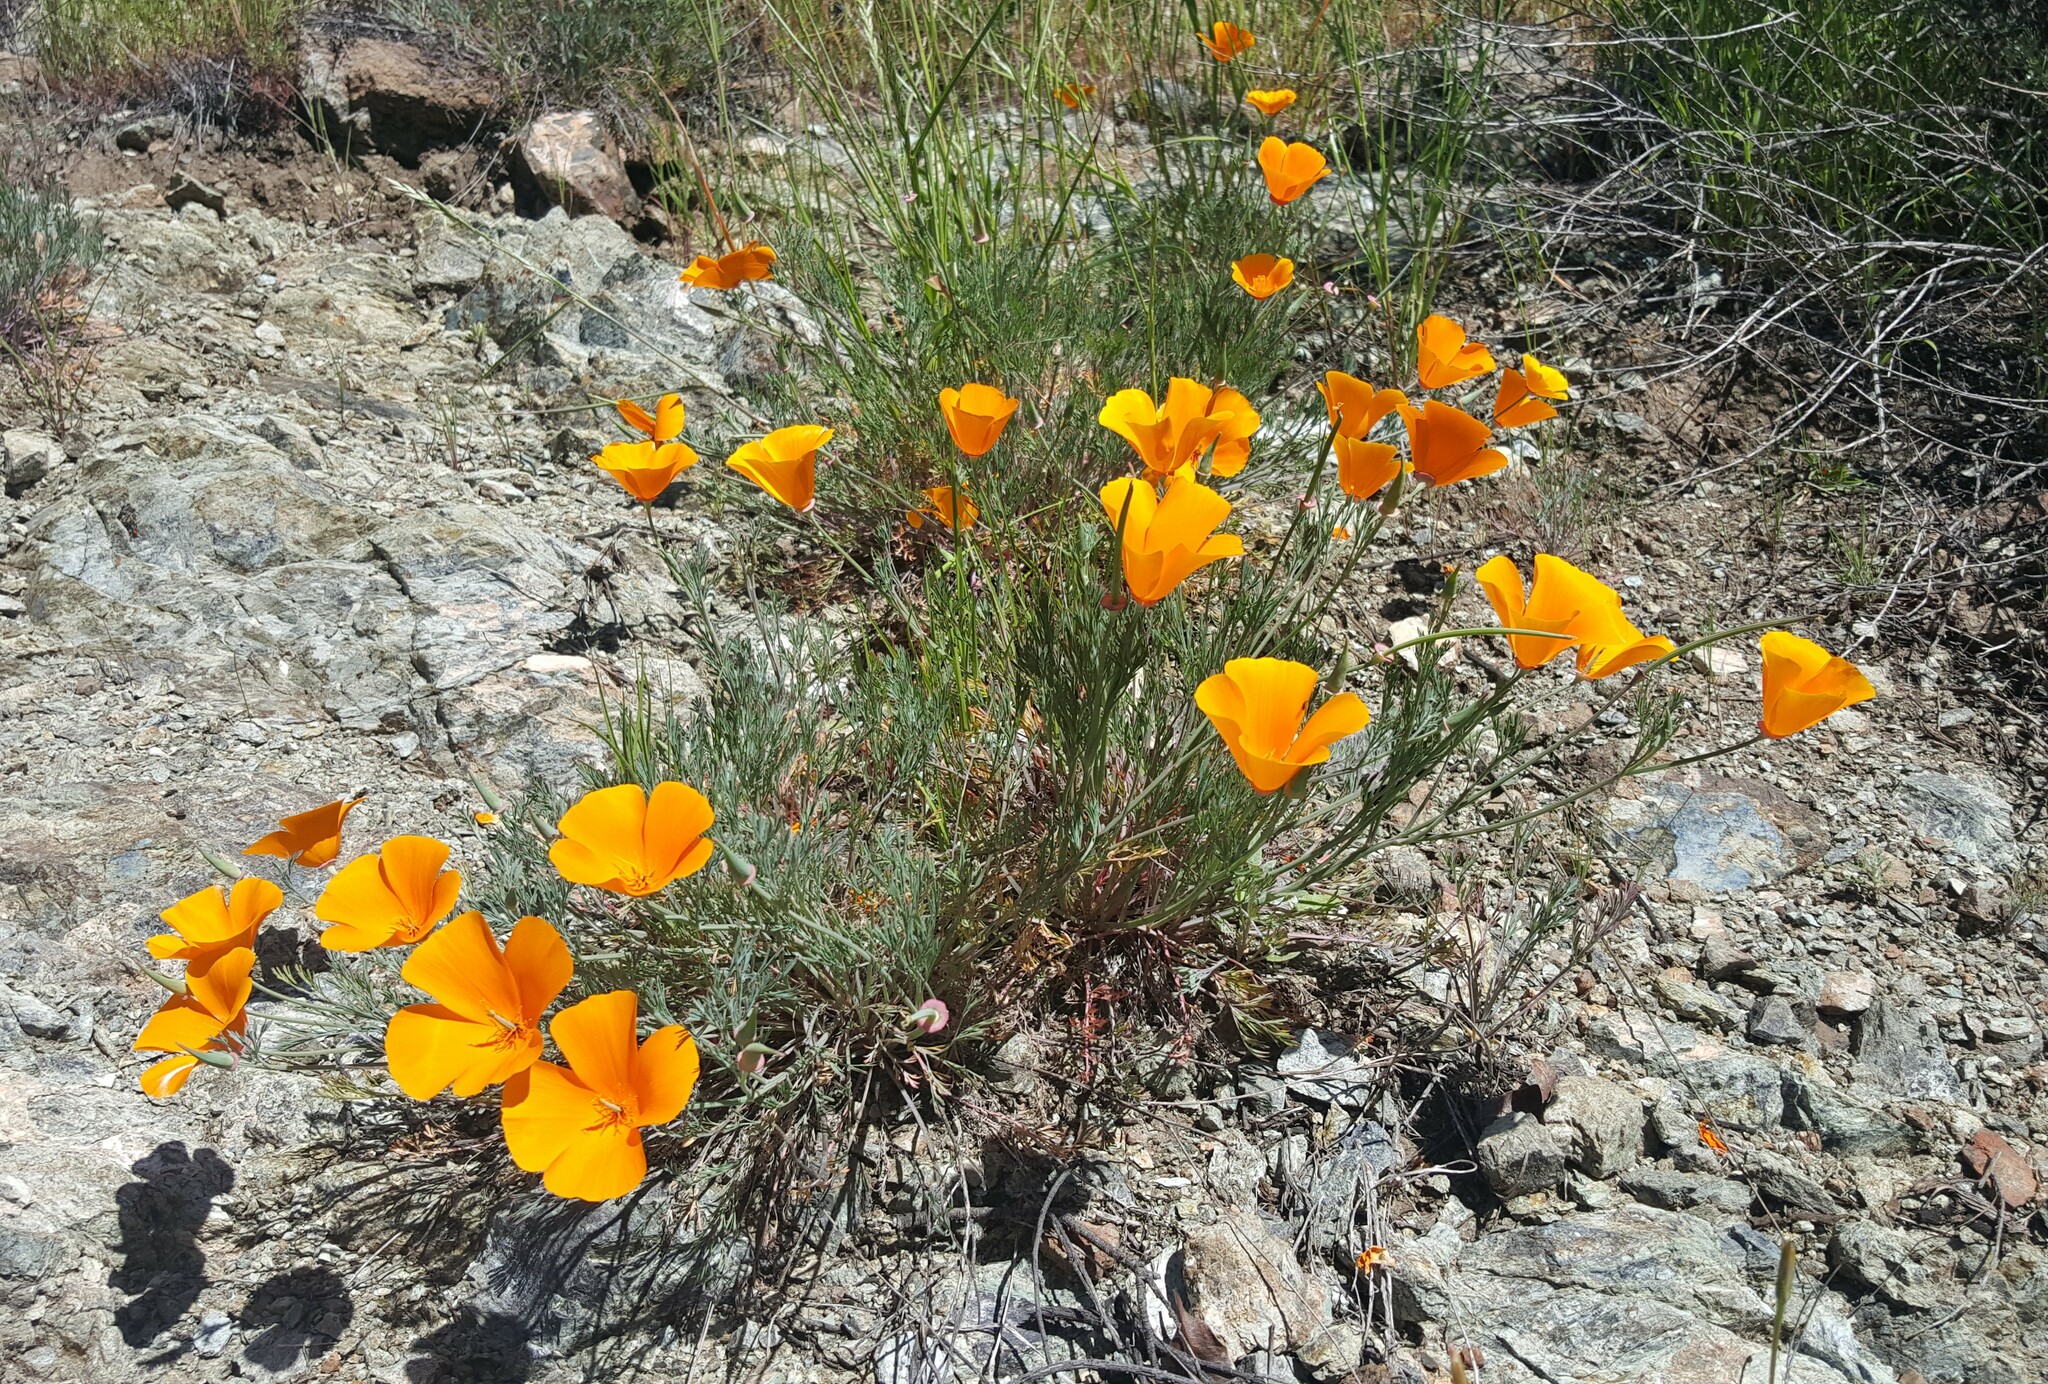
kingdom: Plantae
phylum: Tracheophyta
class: Magnoliopsida
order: Ranunculales
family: Papaveraceae
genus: Eschscholzia
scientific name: Eschscholzia californica
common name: California poppy
